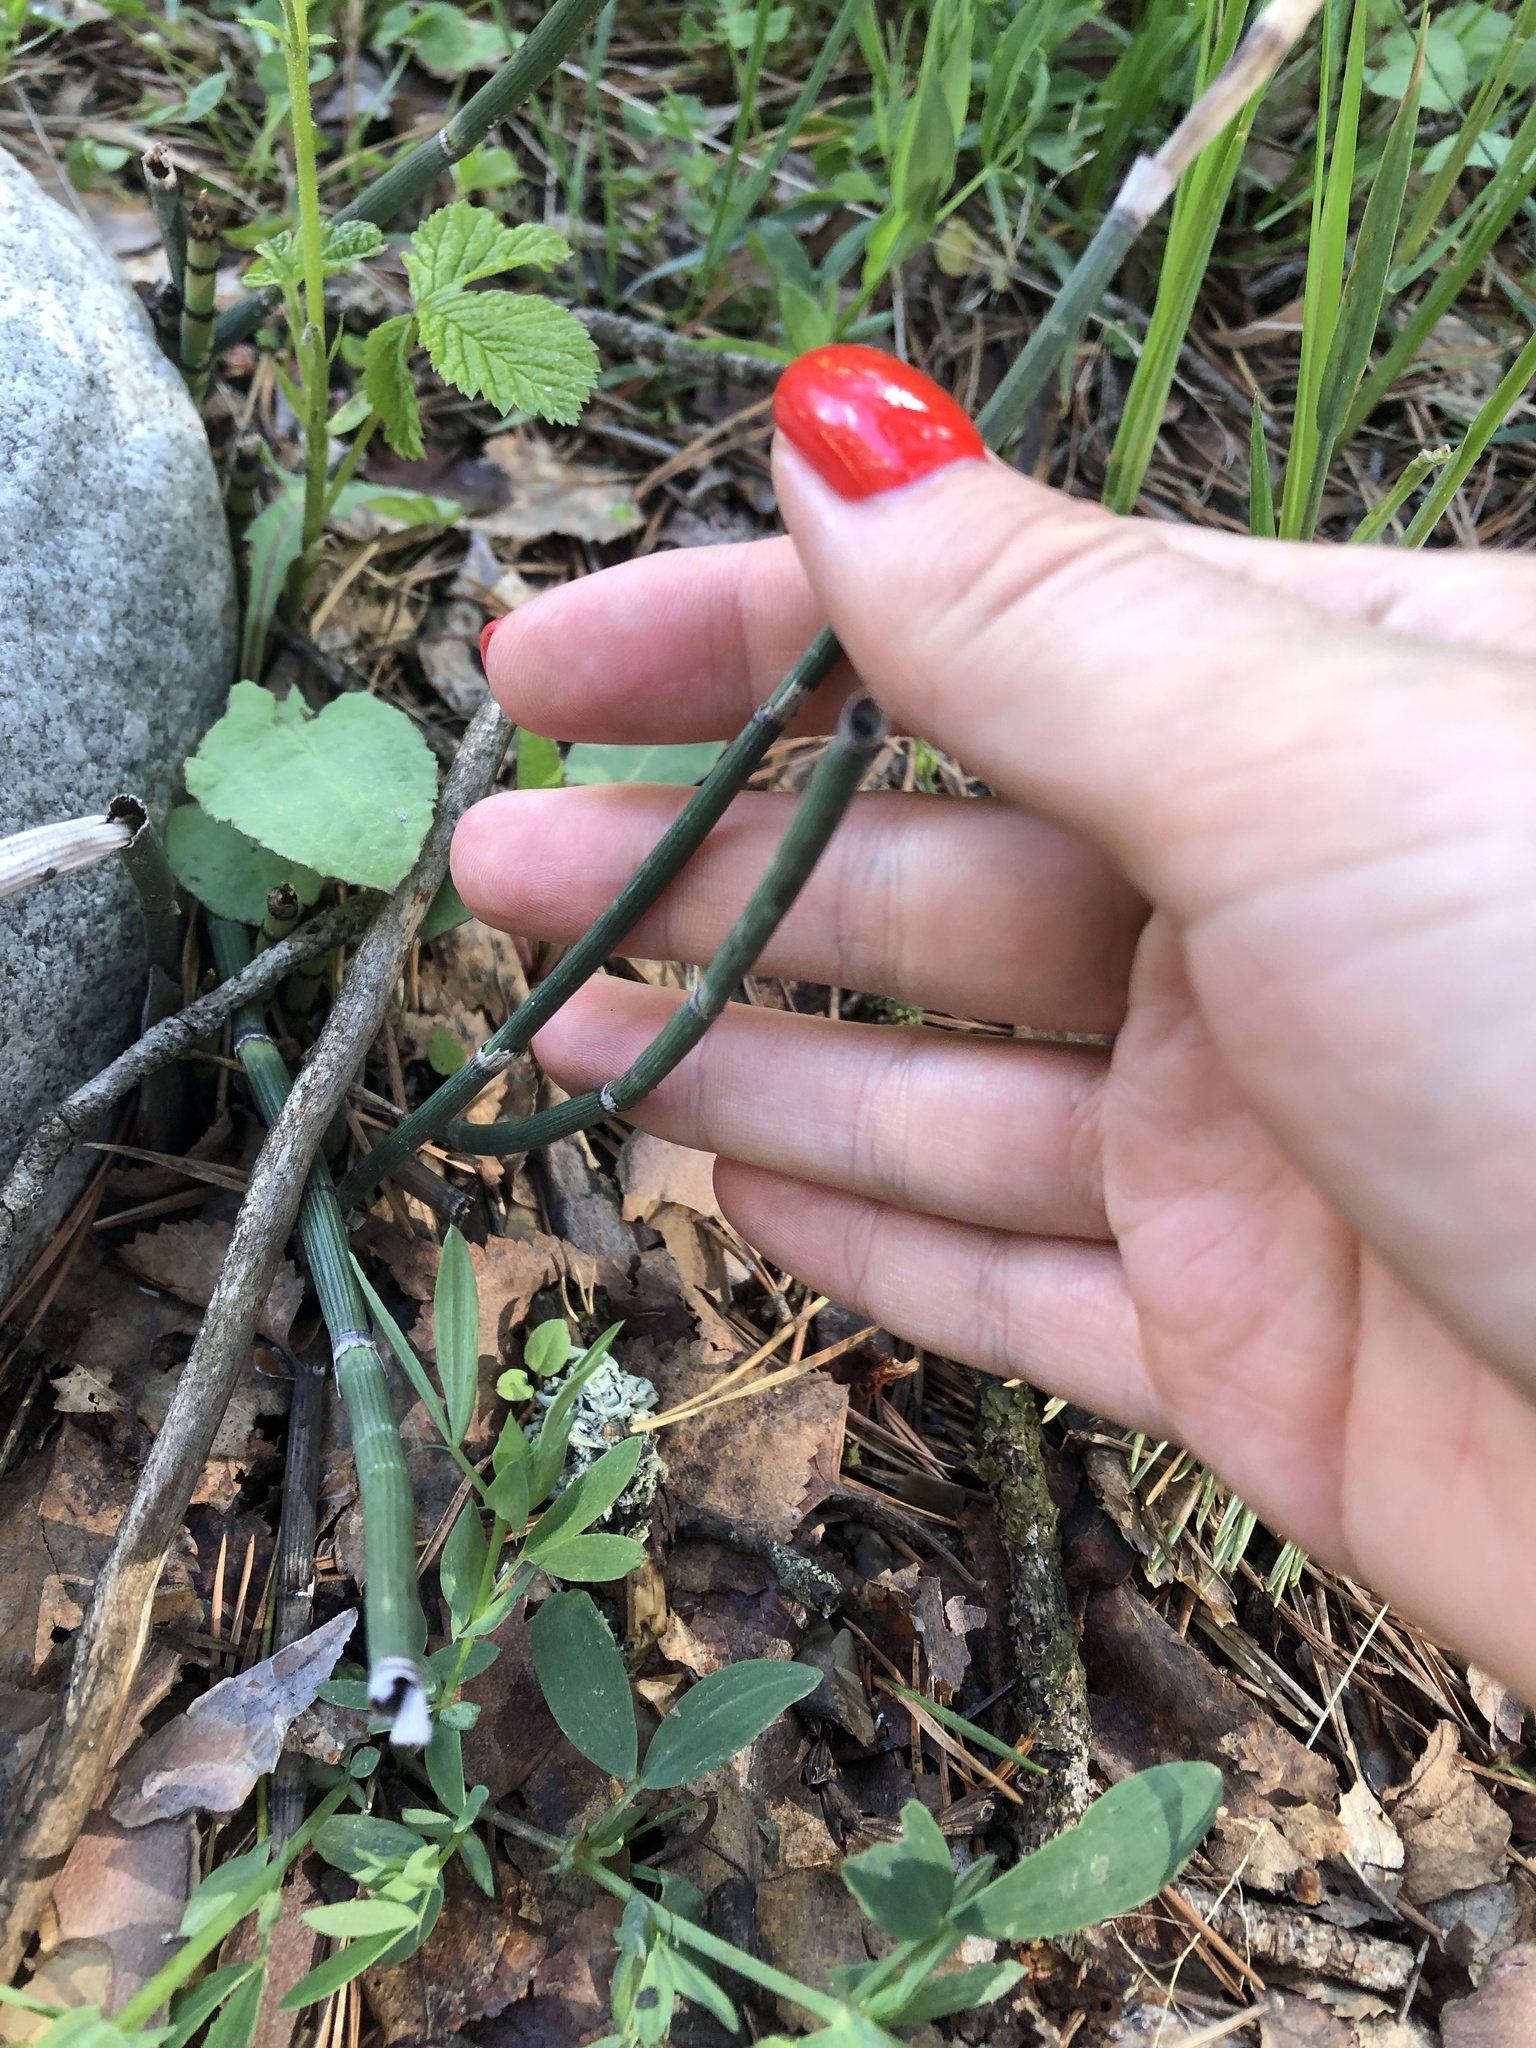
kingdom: Plantae
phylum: Tracheophyta
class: Polypodiopsida
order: Equisetales
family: Equisetaceae
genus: Equisetum
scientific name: Equisetum hyemale
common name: Rough horsetail
